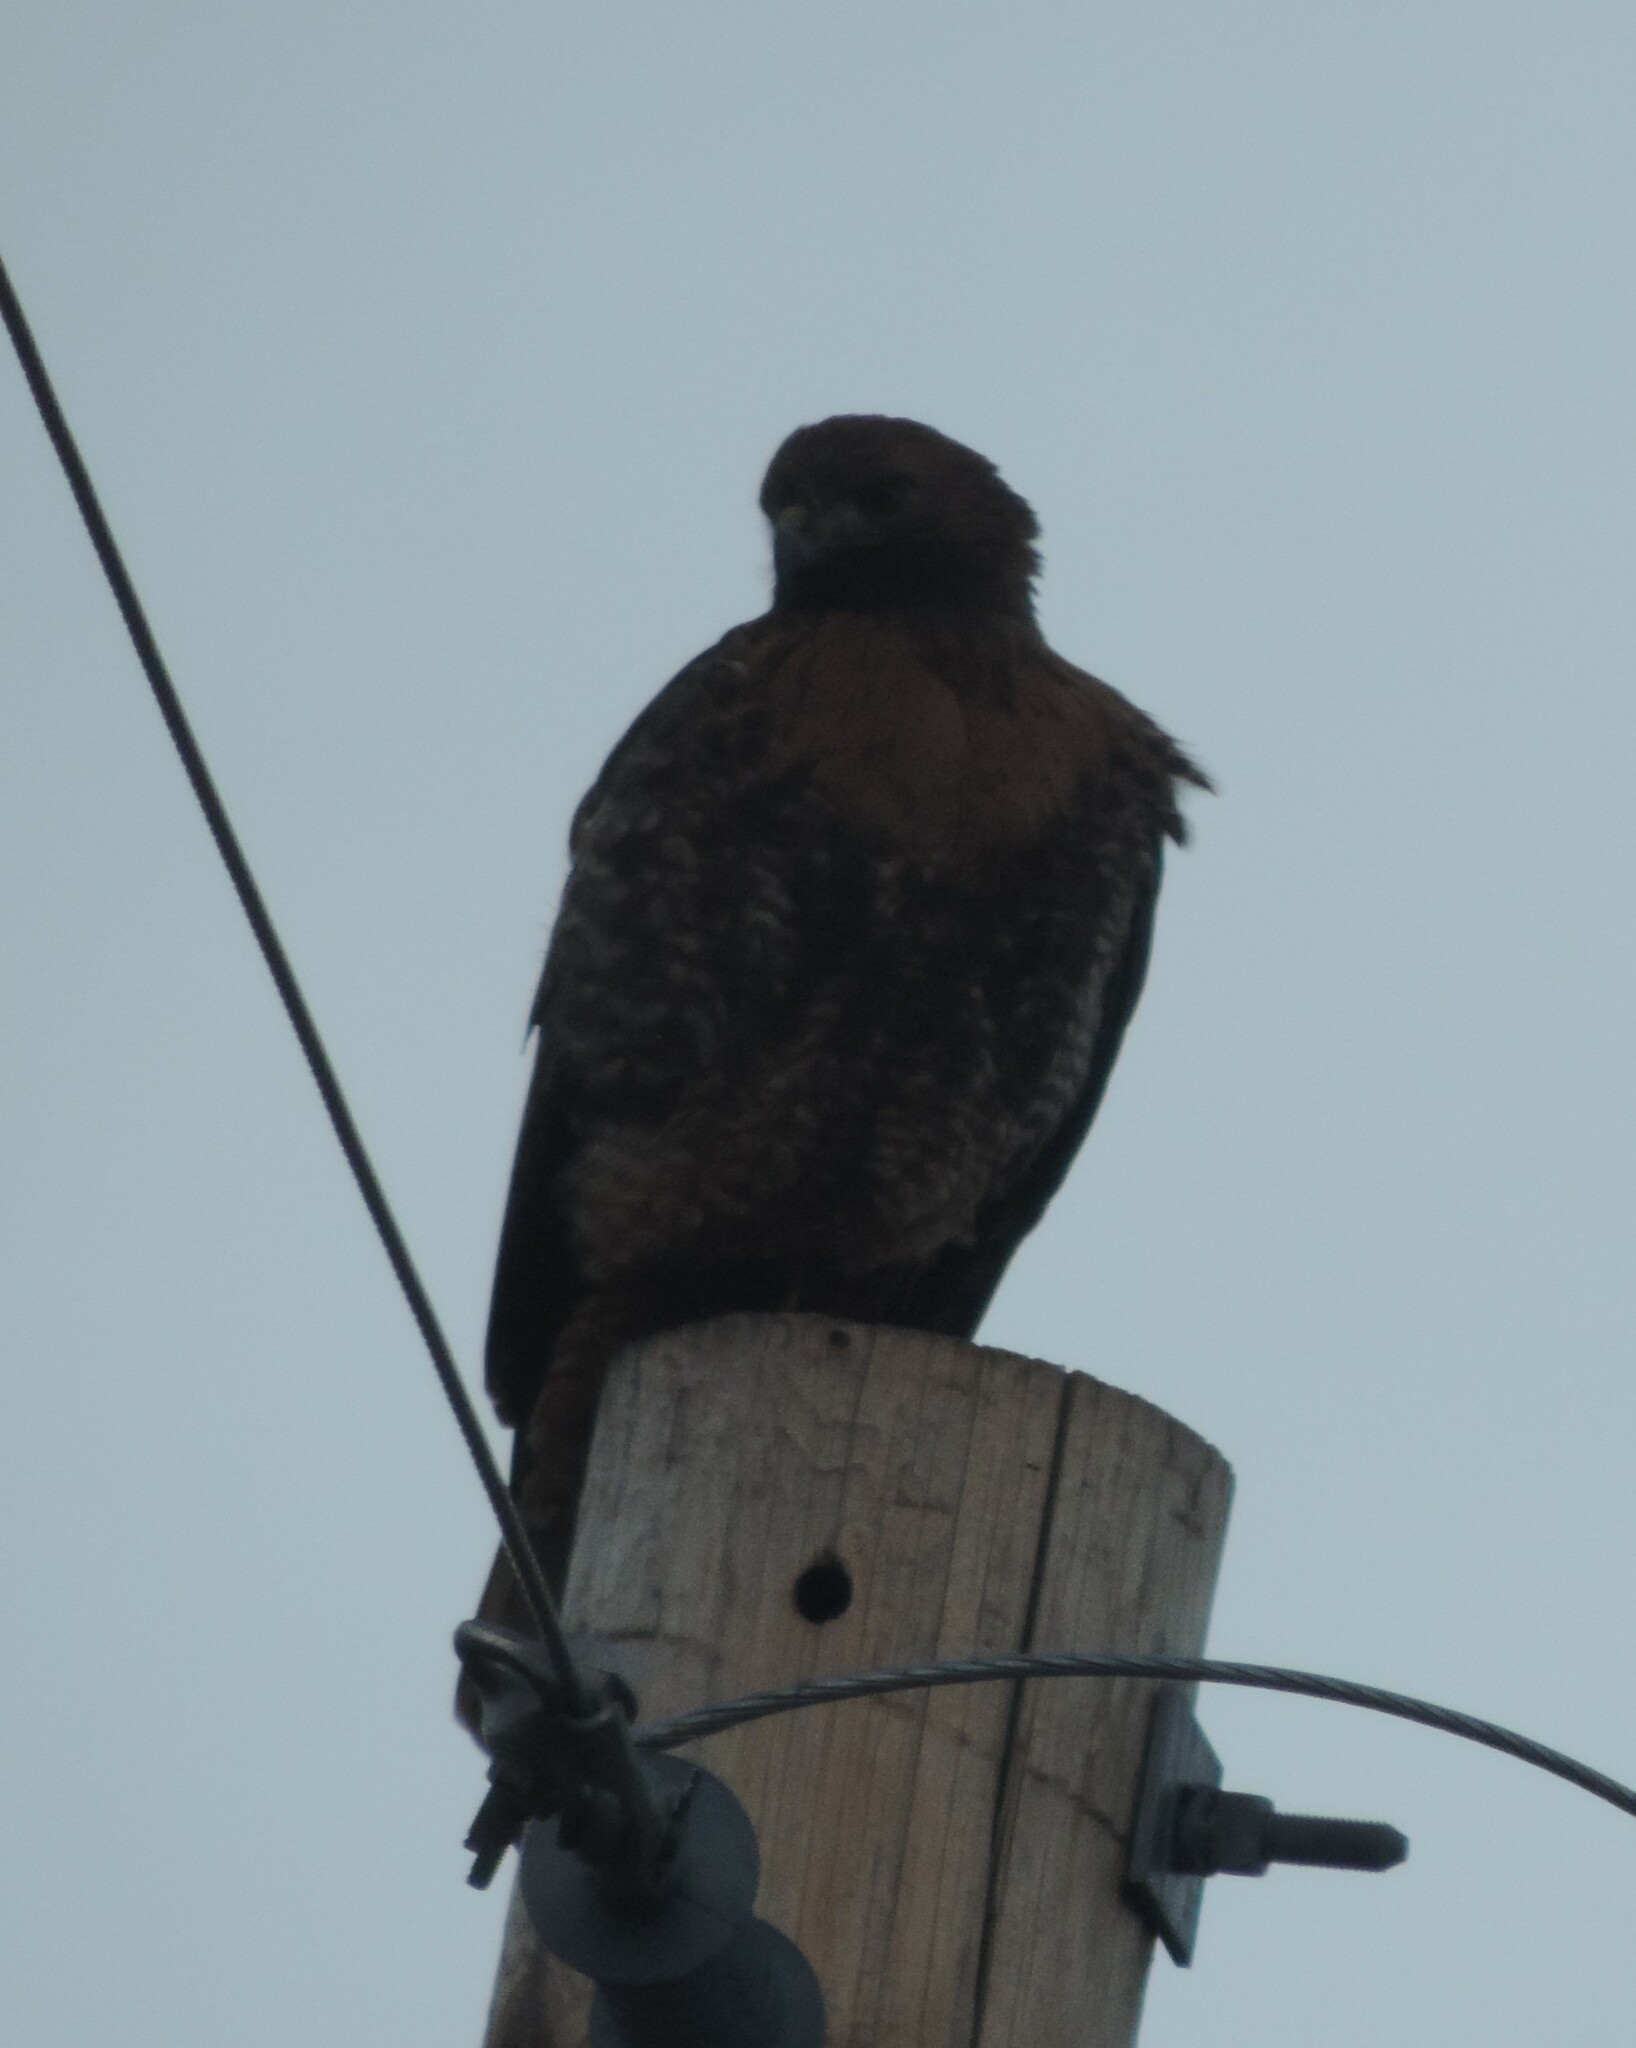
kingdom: Animalia
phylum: Chordata
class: Aves
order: Accipitriformes
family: Accipitridae
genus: Buteo
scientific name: Buteo jamaicensis
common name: Red-tailed hawk
